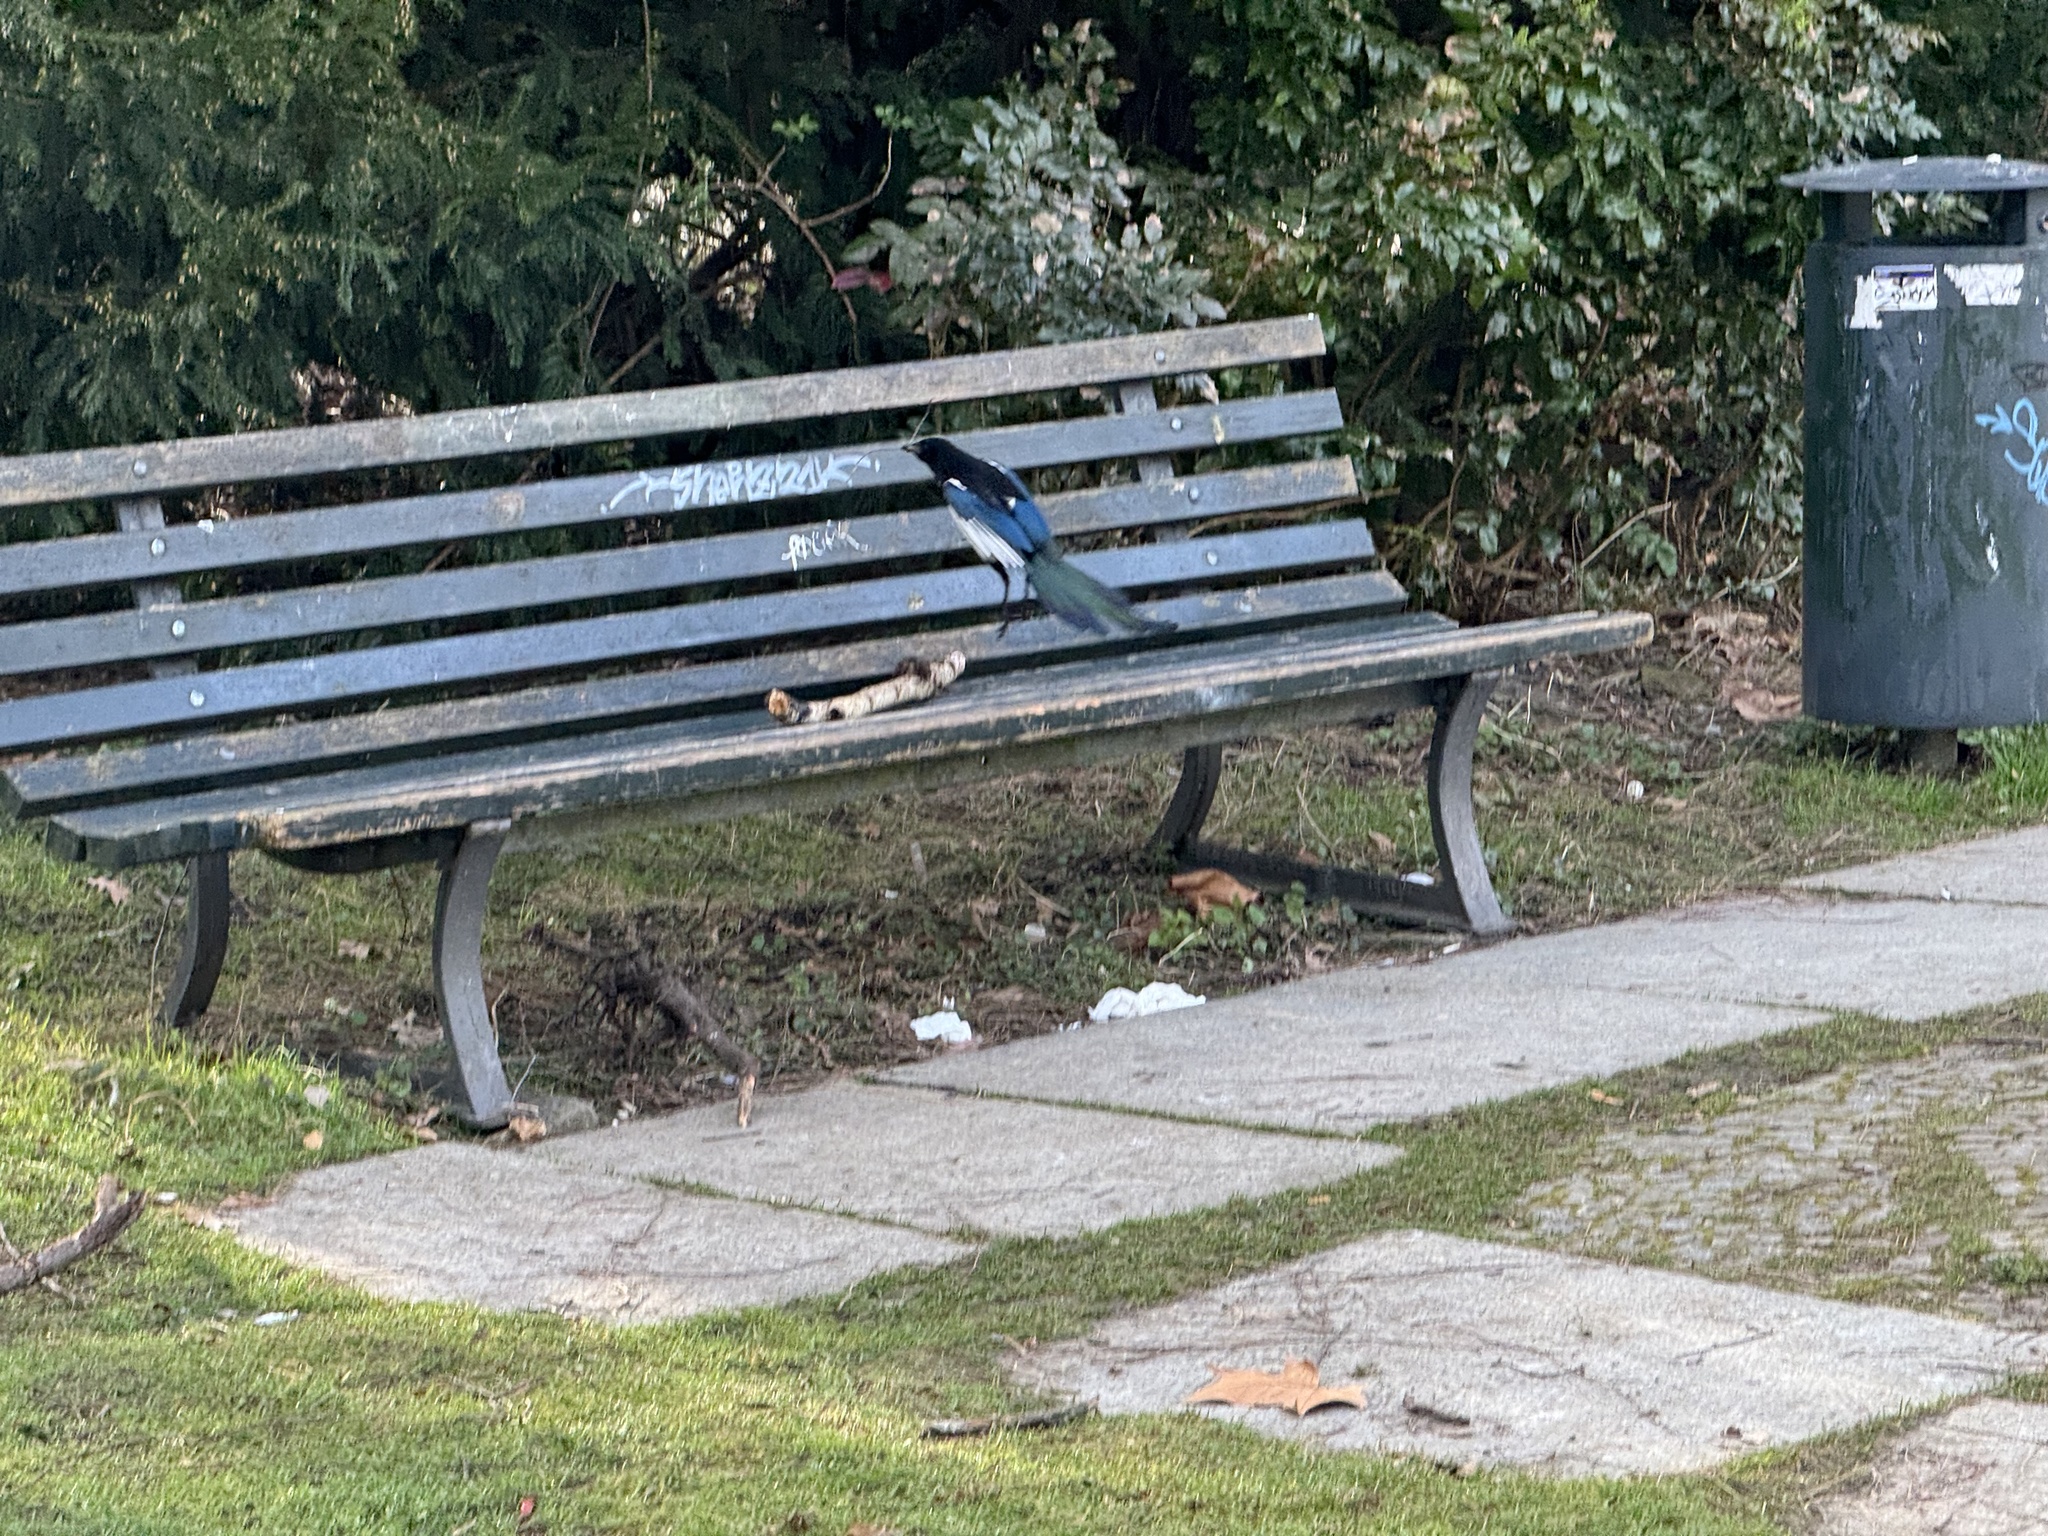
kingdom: Animalia
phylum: Chordata
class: Aves
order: Passeriformes
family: Corvidae
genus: Pica
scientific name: Pica pica
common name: Eurasian magpie
